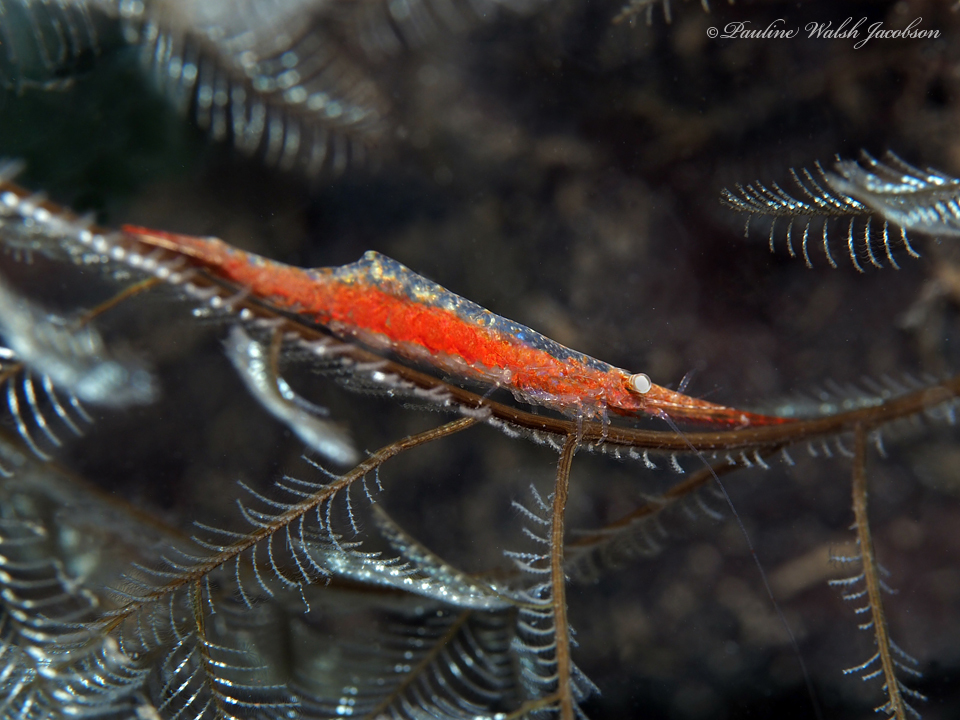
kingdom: Animalia
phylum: Arthropoda
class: Malacostraca
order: Decapoda
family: Hippolytidae
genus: Tozeuma
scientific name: Tozeuma serratum
